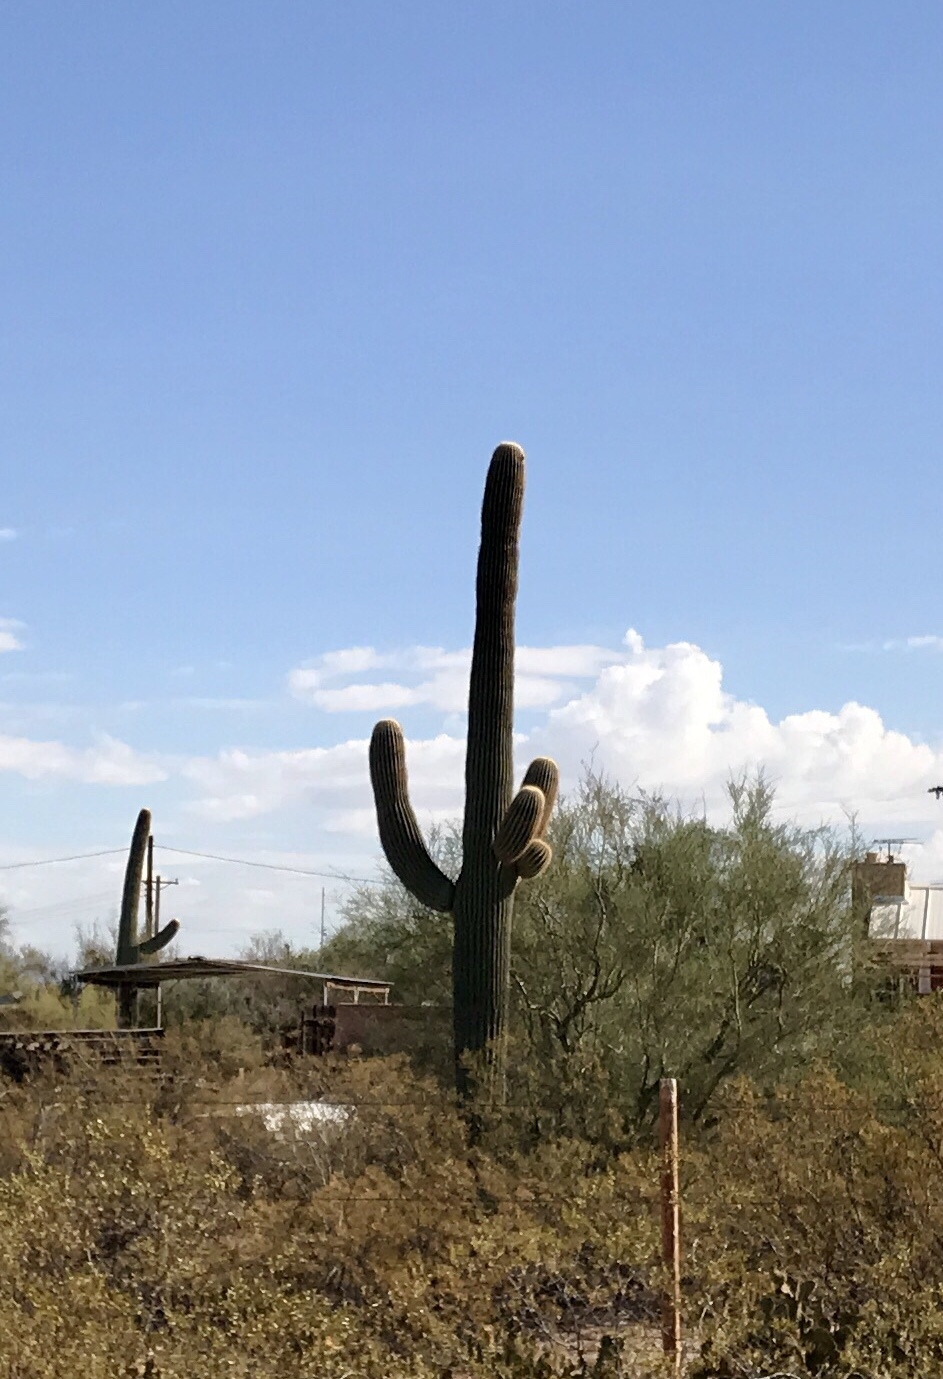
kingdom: Plantae
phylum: Tracheophyta
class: Magnoliopsida
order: Caryophyllales
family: Cactaceae
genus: Carnegiea
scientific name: Carnegiea gigantea
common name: Saguaro
